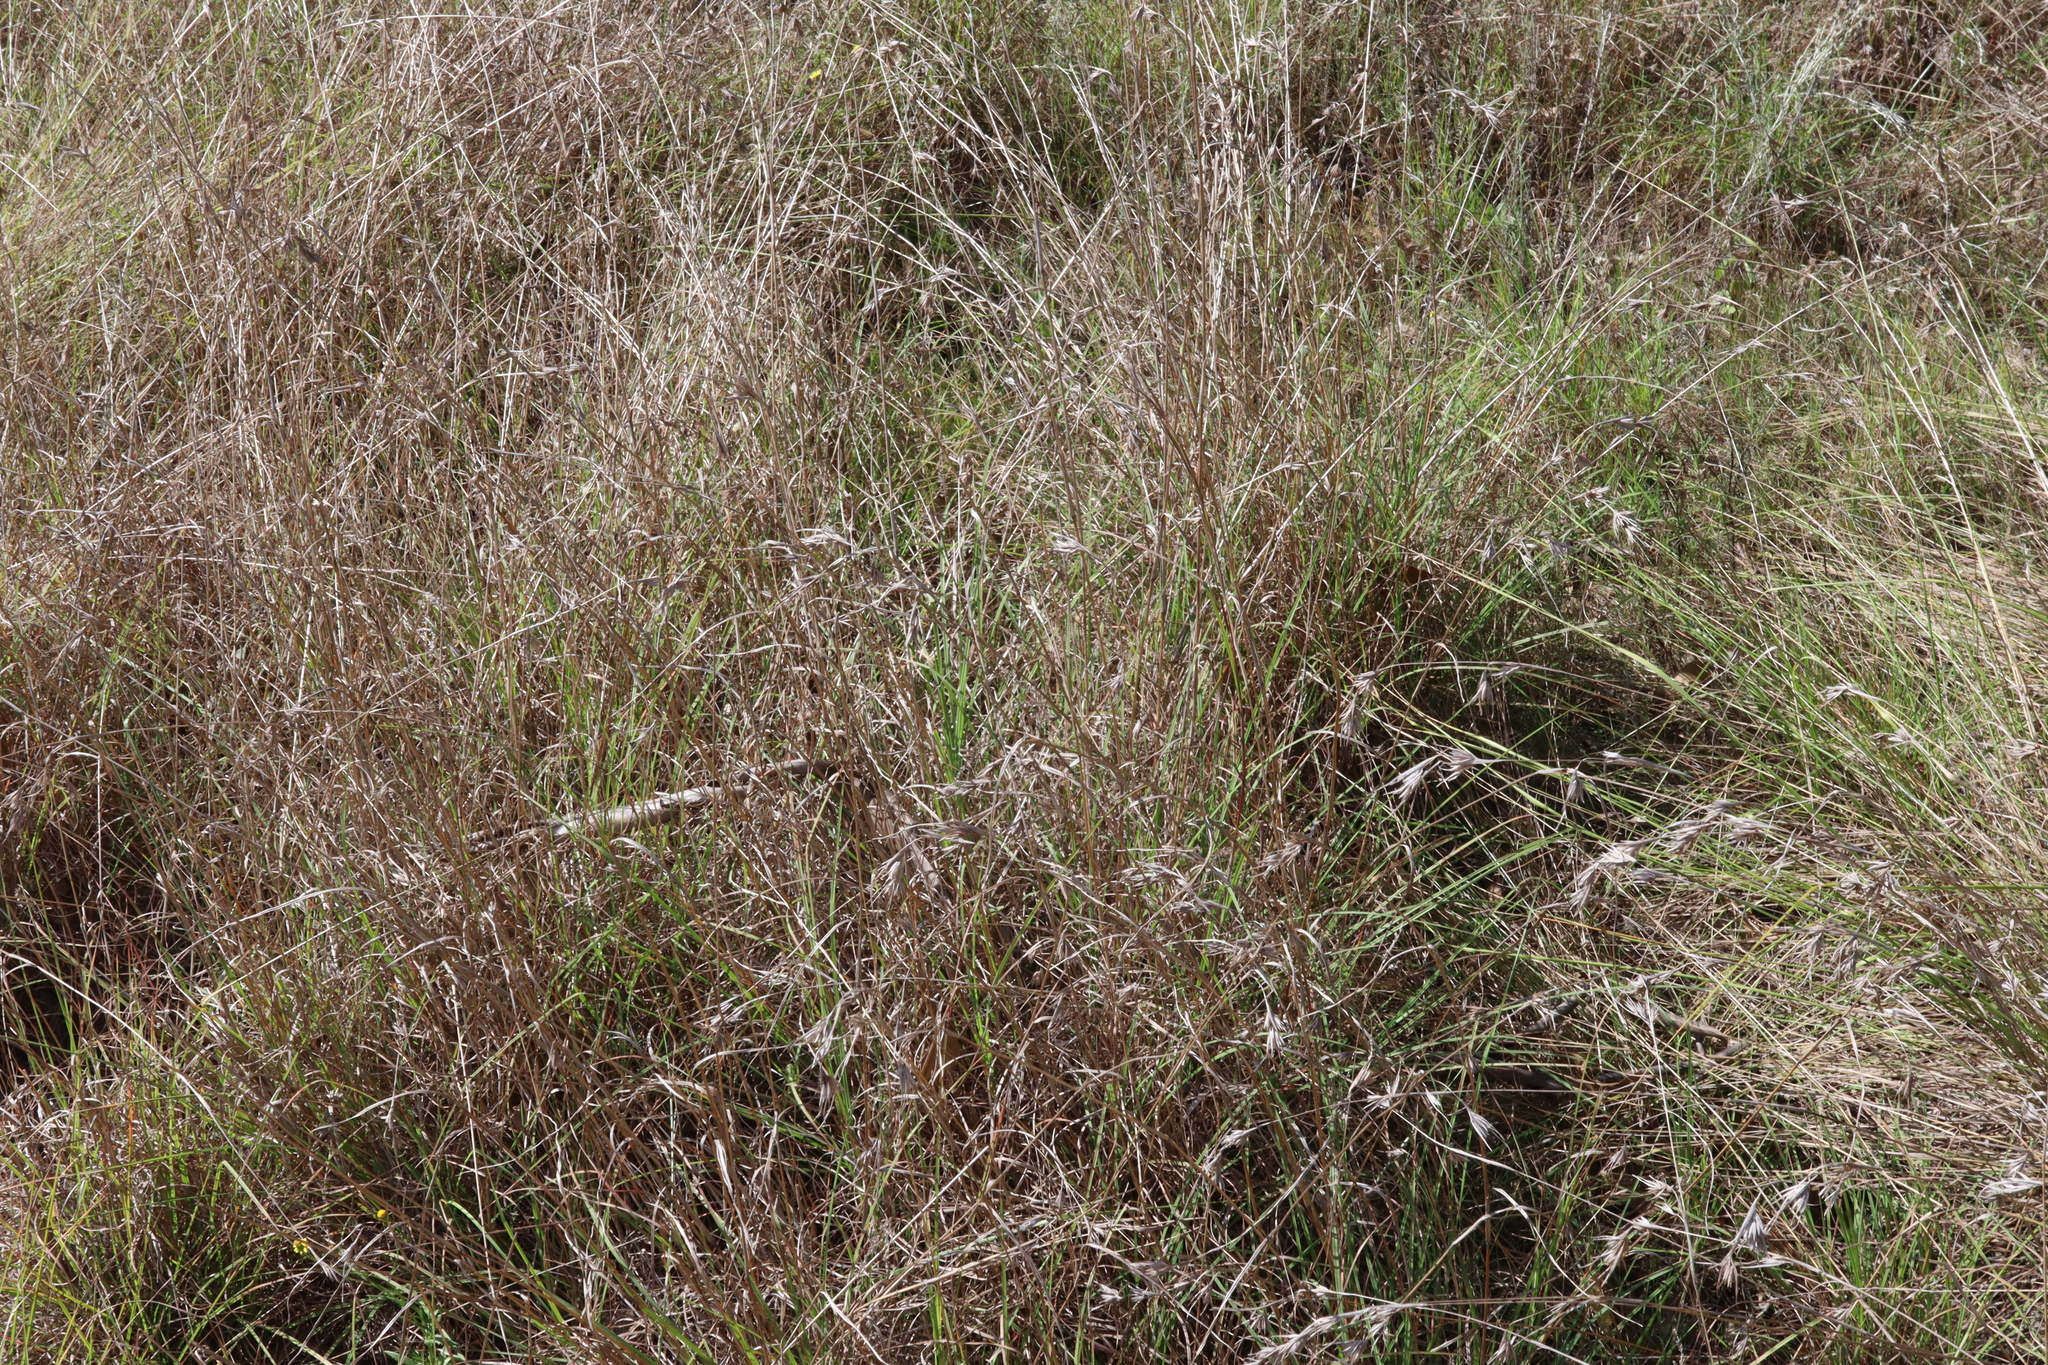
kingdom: Plantae
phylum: Tracheophyta
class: Liliopsida
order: Poales
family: Poaceae
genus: Themeda
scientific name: Themeda triandra
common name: Kangaroo grass
